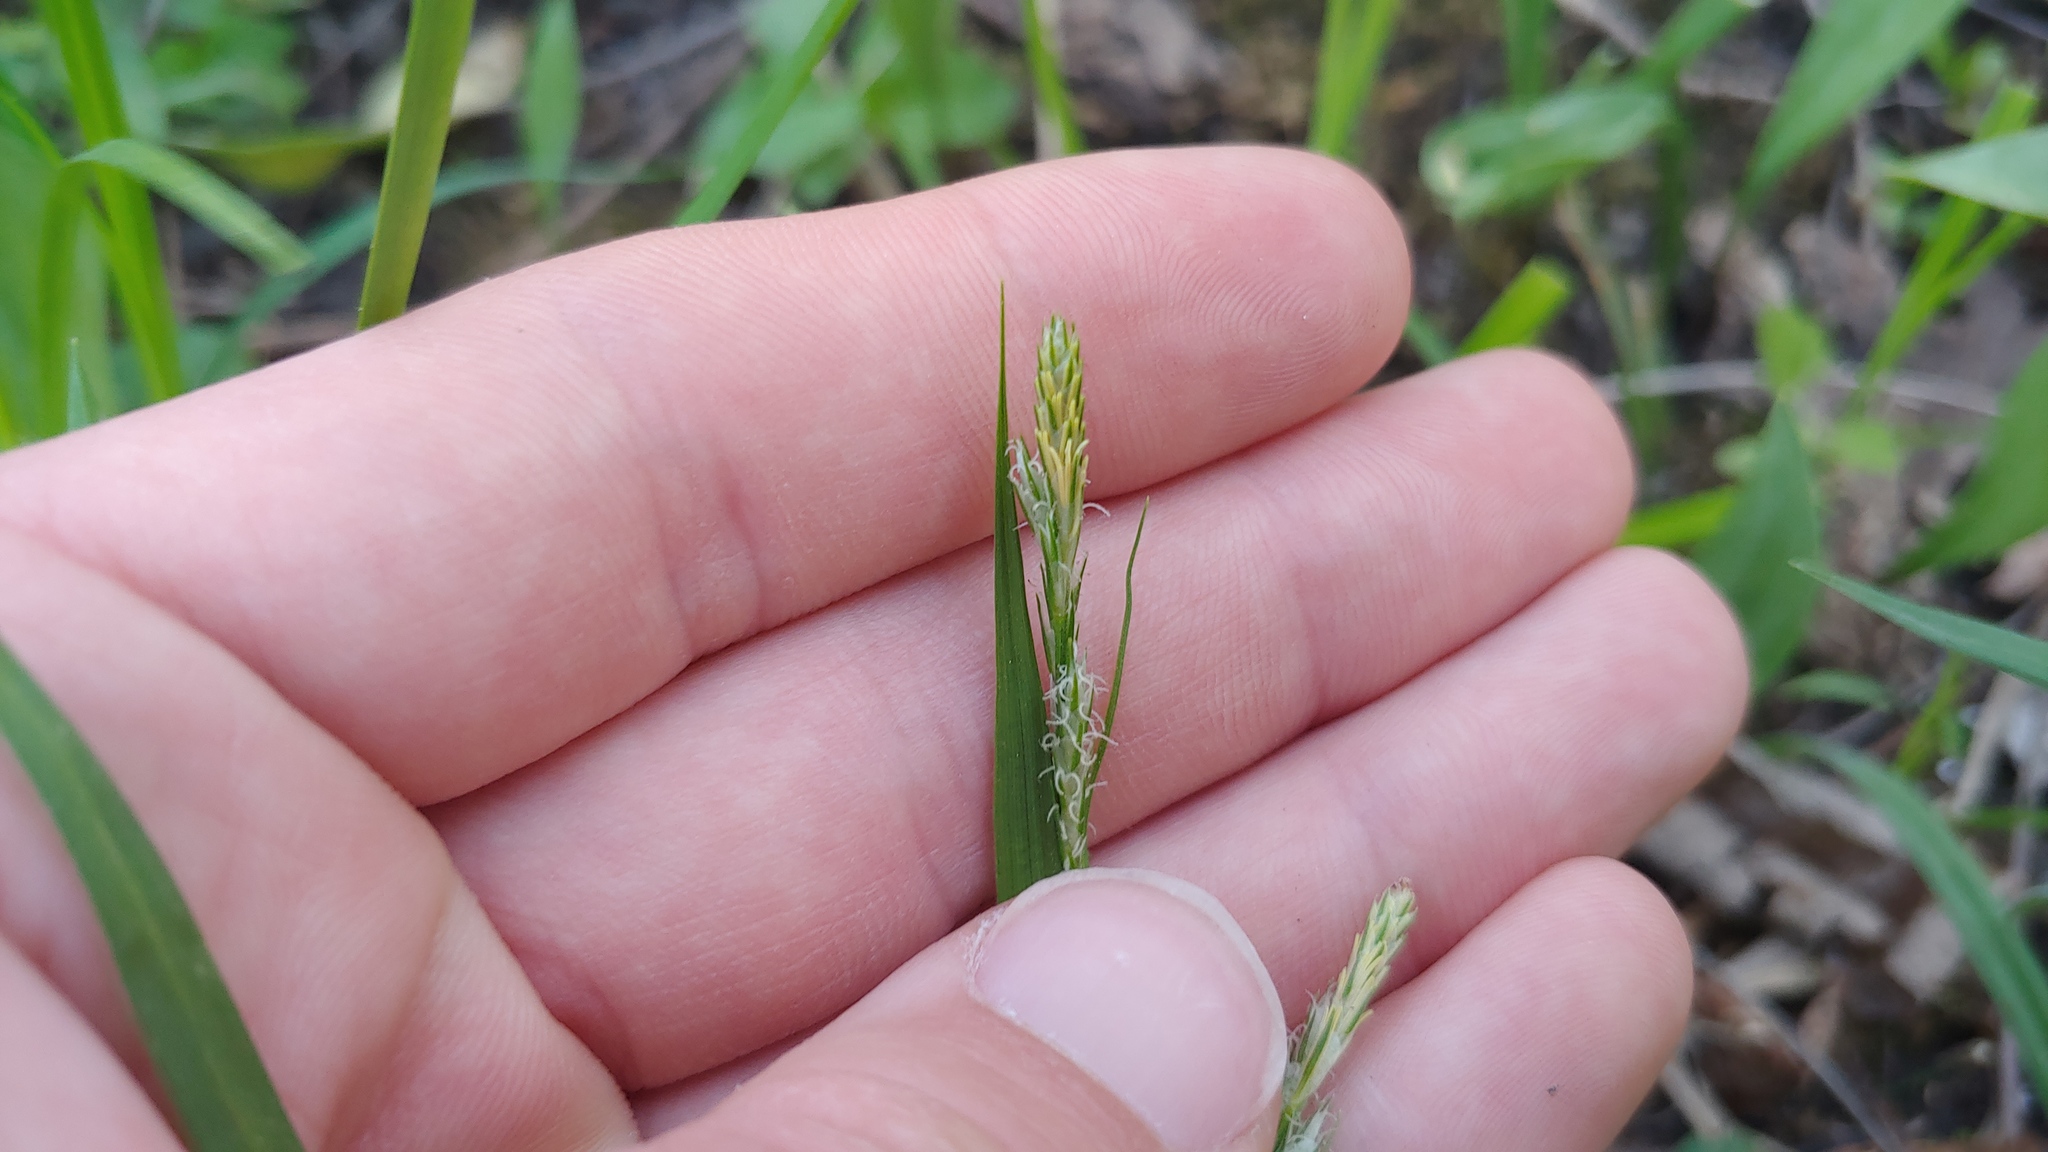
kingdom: Plantae
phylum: Tracheophyta
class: Liliopsida
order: Poales
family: Cyperaceae
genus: Carex
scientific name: Carex hirtifolia
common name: Hairy sedge
